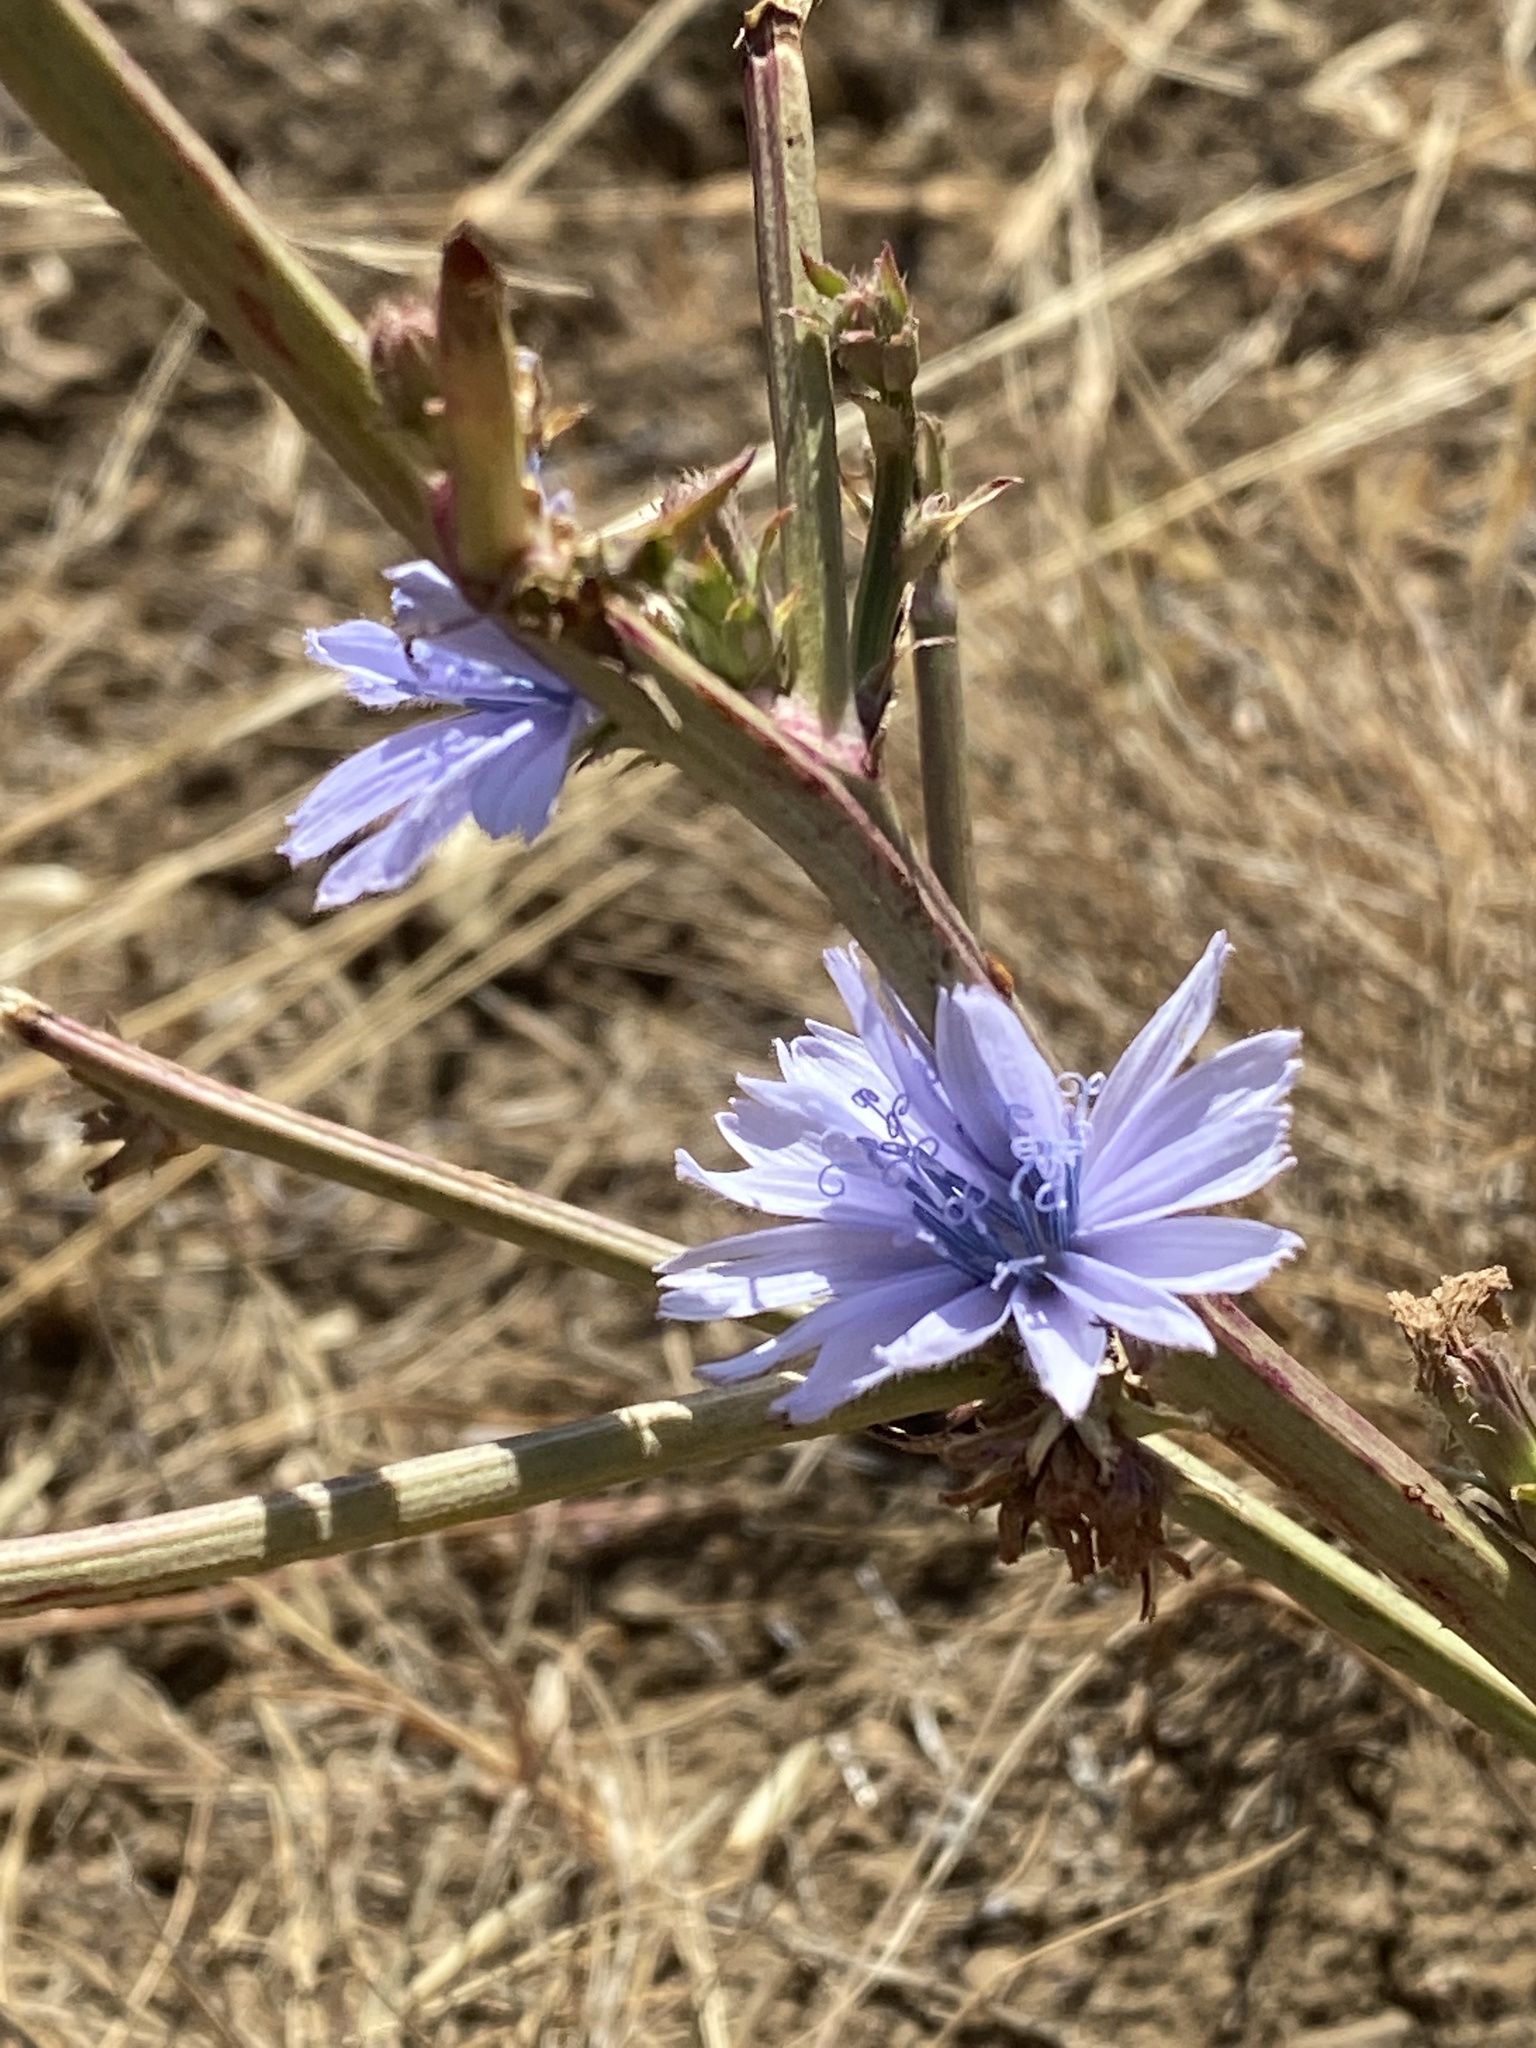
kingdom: Plantae
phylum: Tracheophyta
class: Magnoliopsida
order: Asterales
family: Asteraceae
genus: Cichorium
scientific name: Cichorium intybus
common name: Chicory
